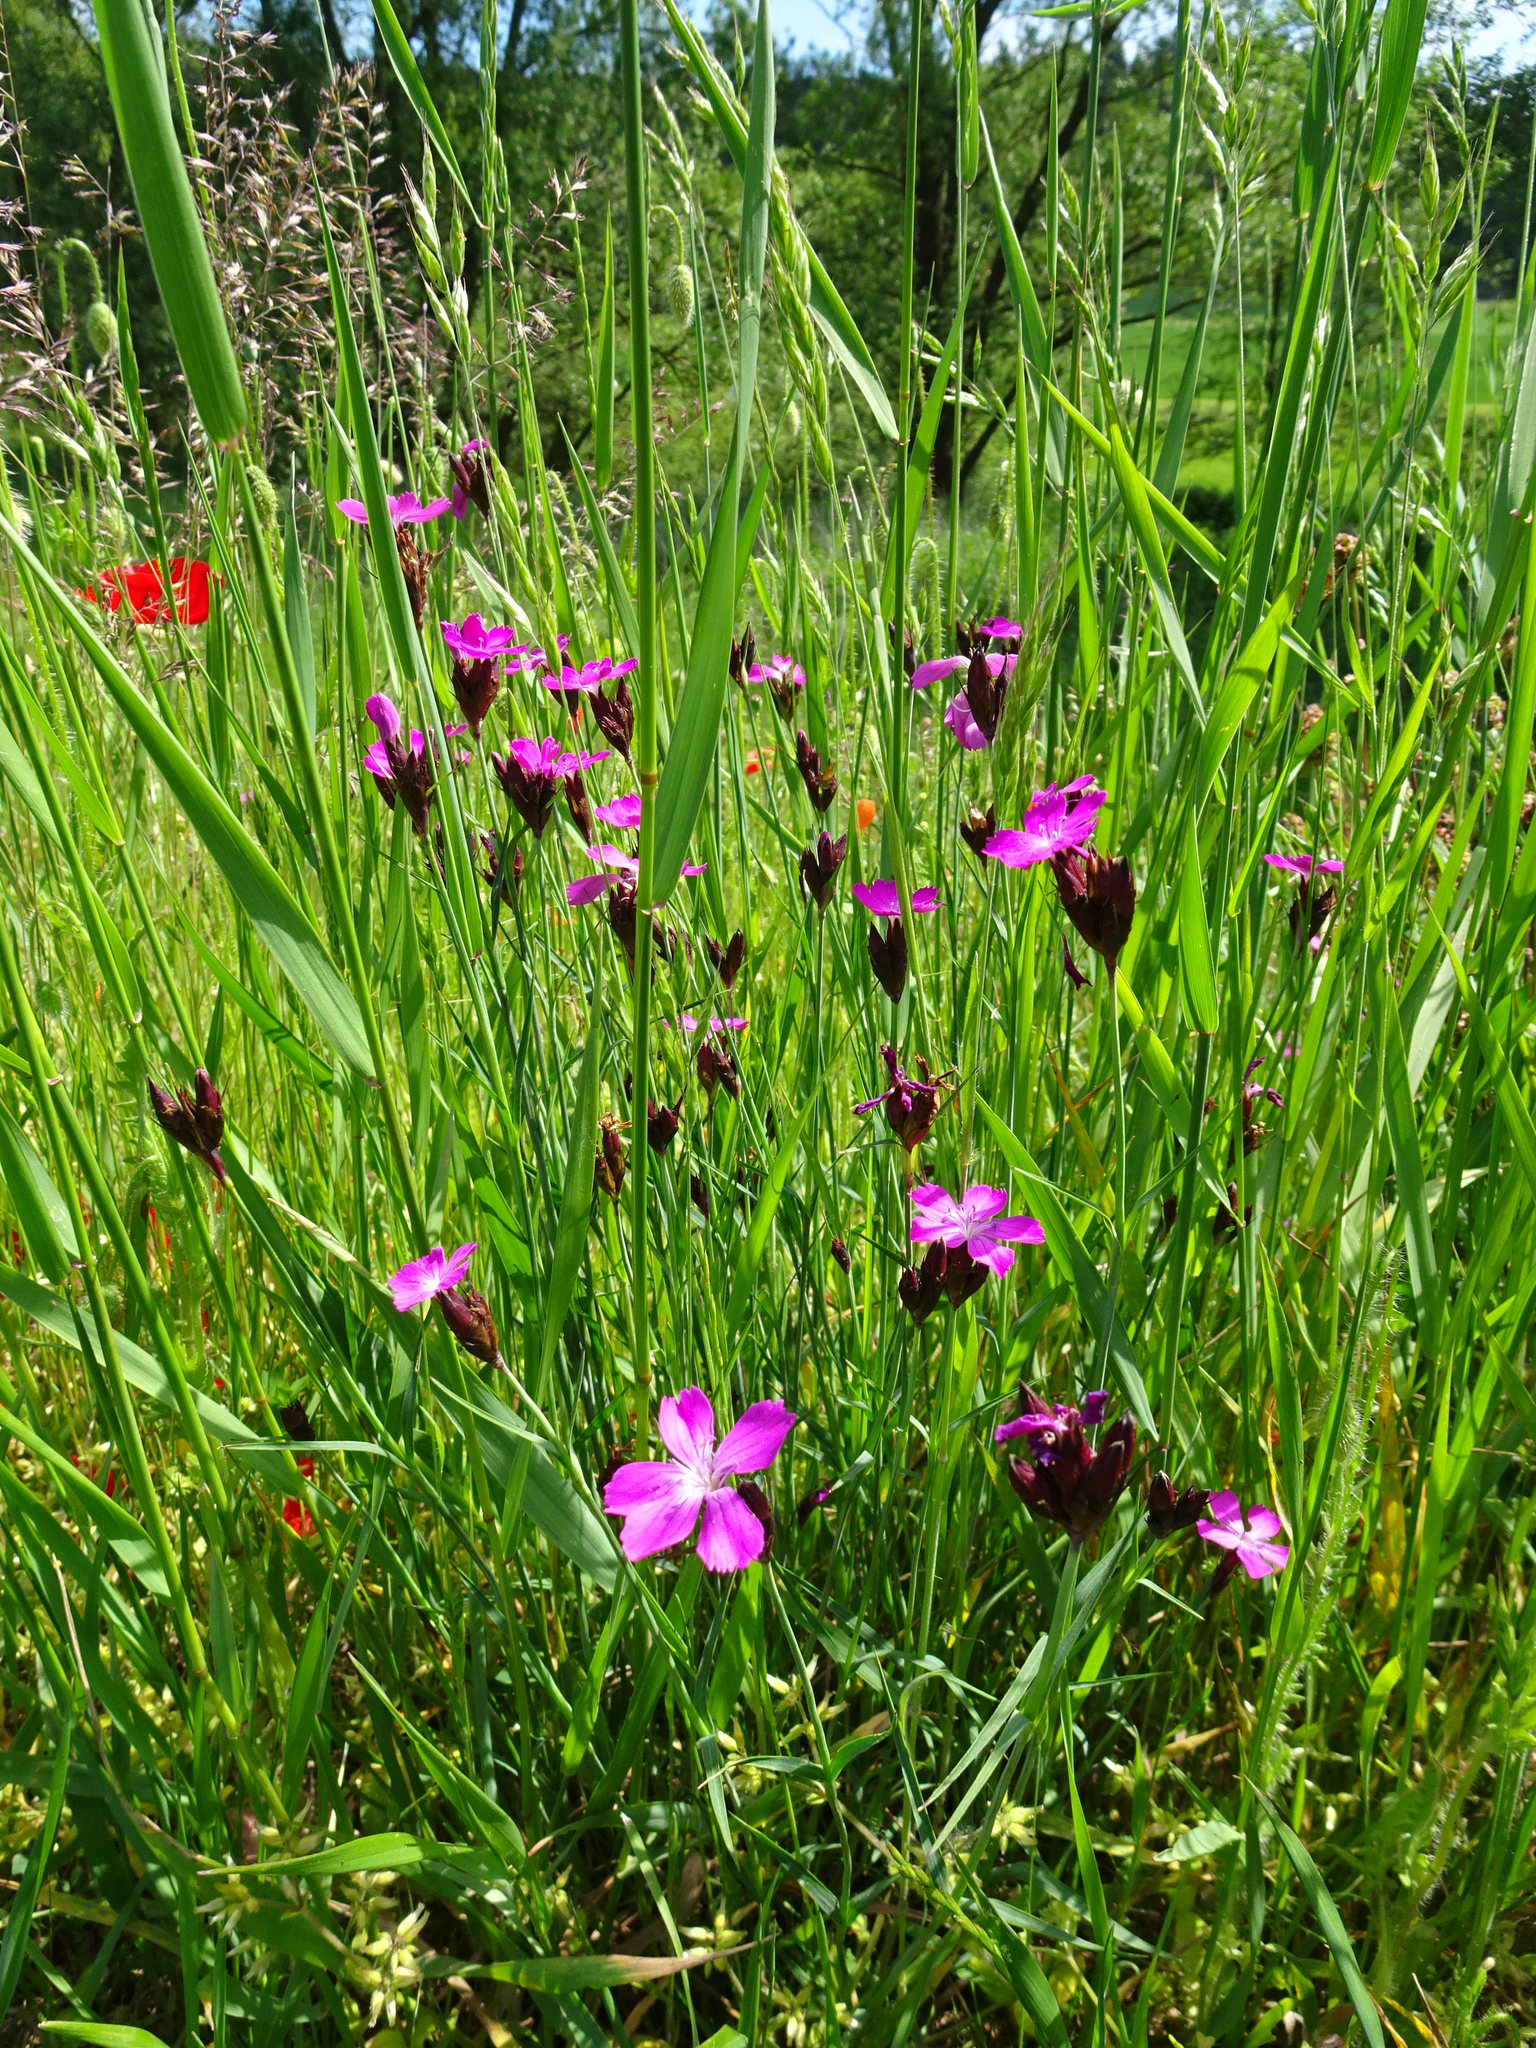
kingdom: Plantae
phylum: Tracheophyta
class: Magnoliopsida
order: Caryophyllales
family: Caryophyllaceae
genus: Dianthus
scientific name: Dianthus carthusianorum
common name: Carthusian pink
